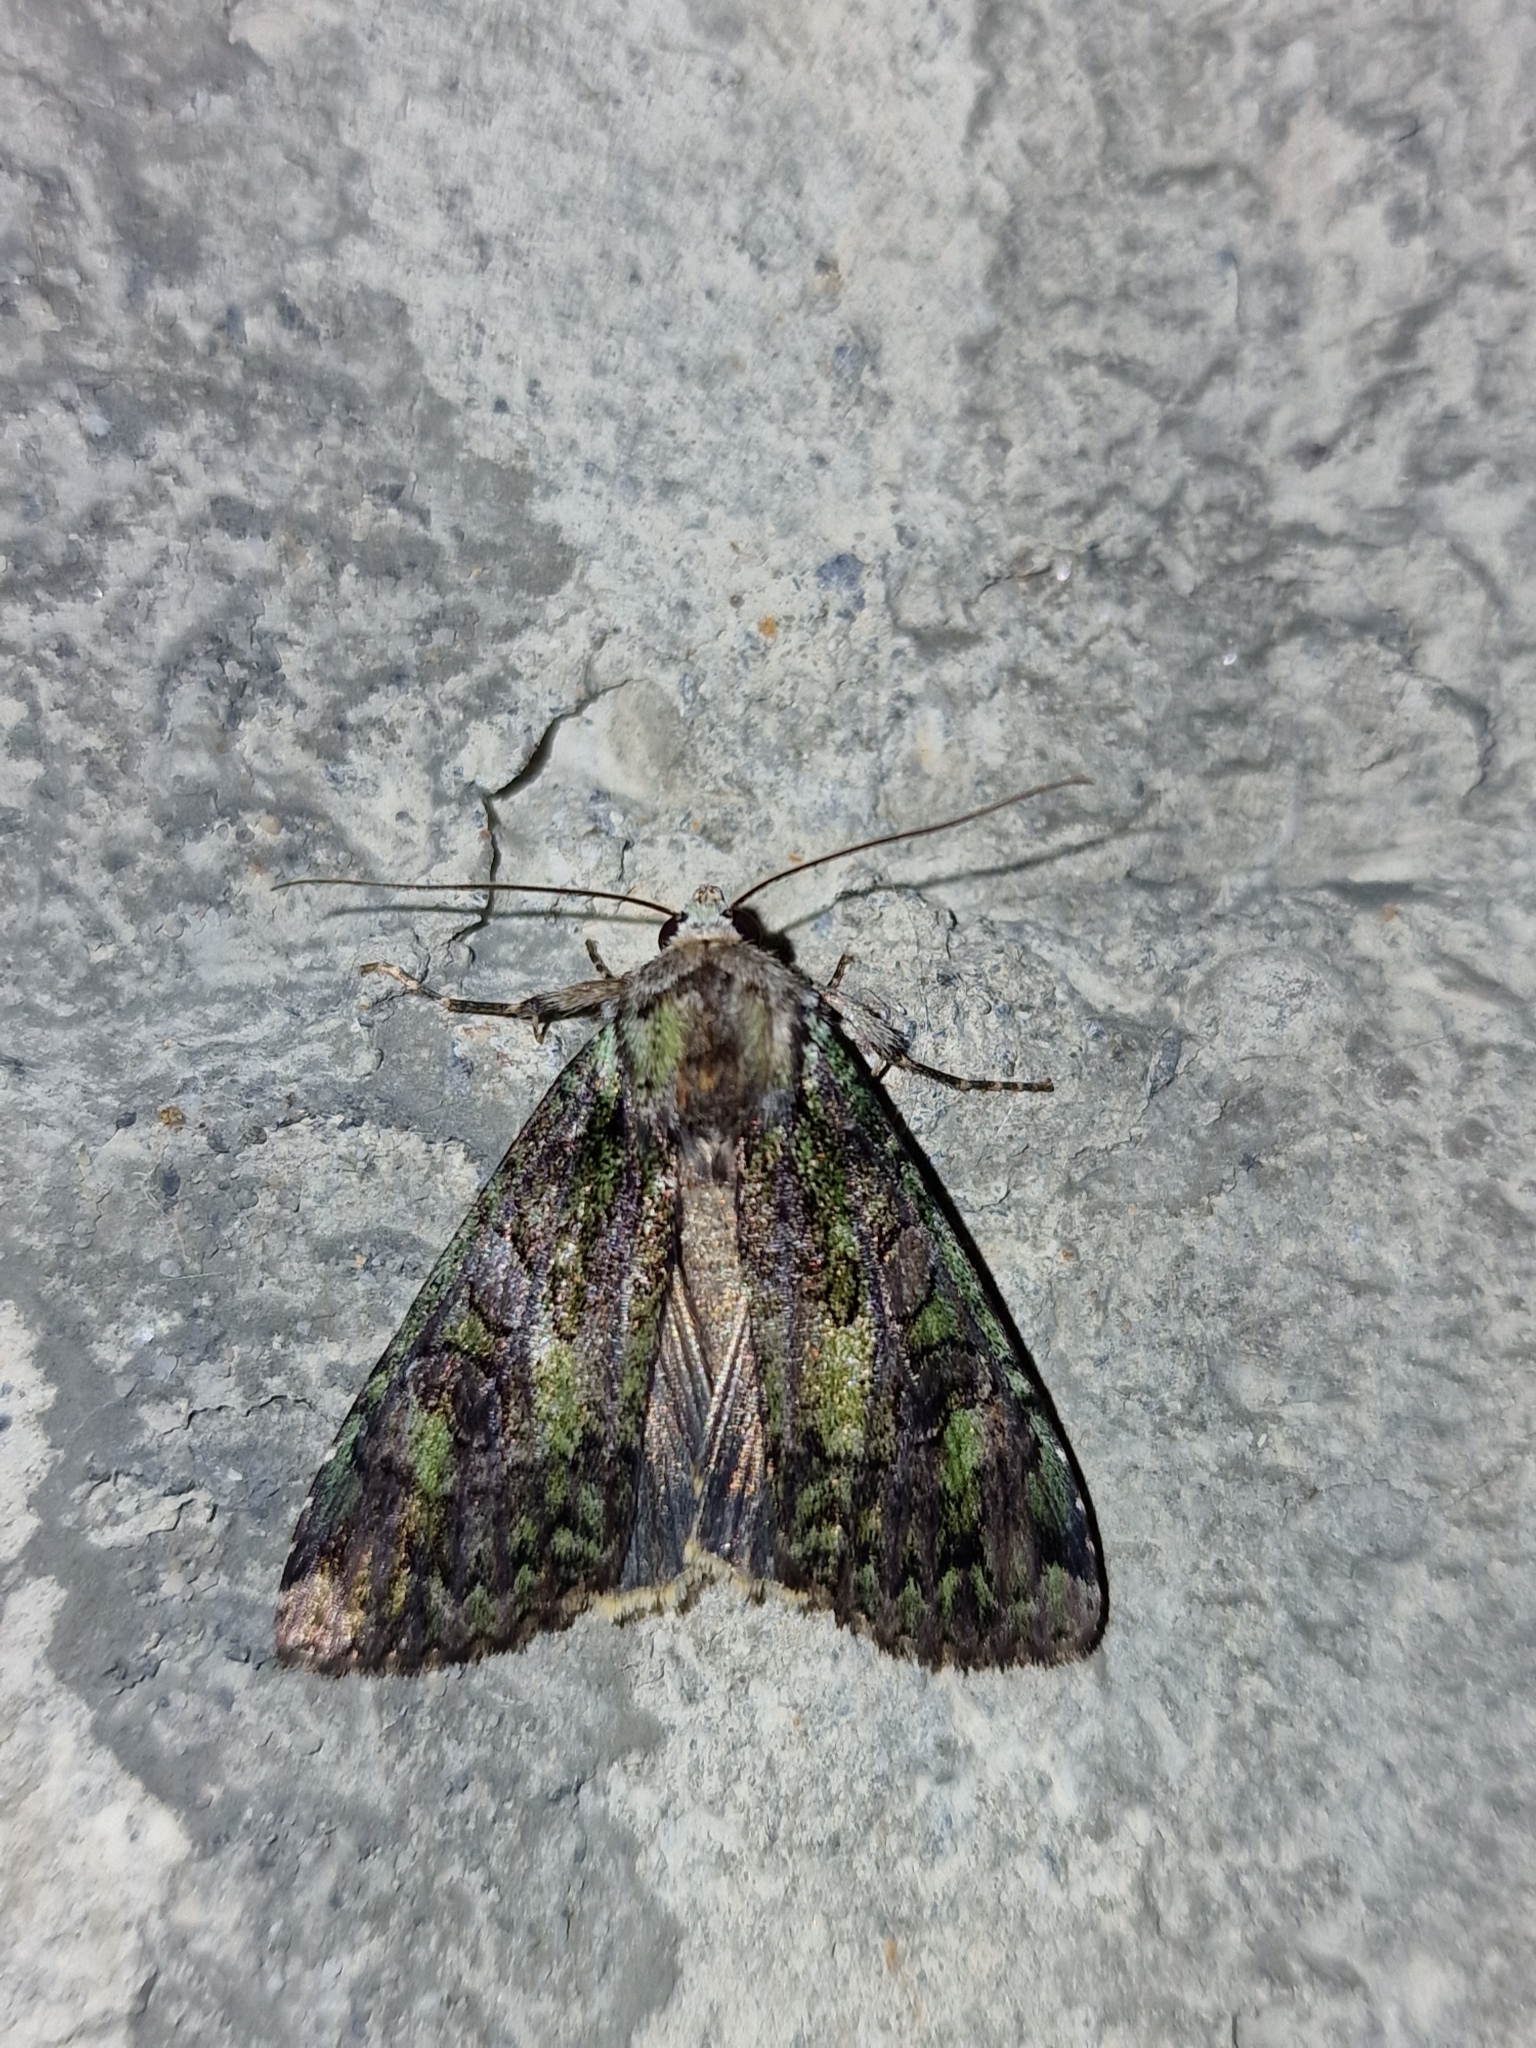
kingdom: Animalia
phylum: Arthropoda
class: Insecta
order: Lepidoptera
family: Noctuidae
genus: Anaplectoides
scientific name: Anaplectoides prasina
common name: Green arches
